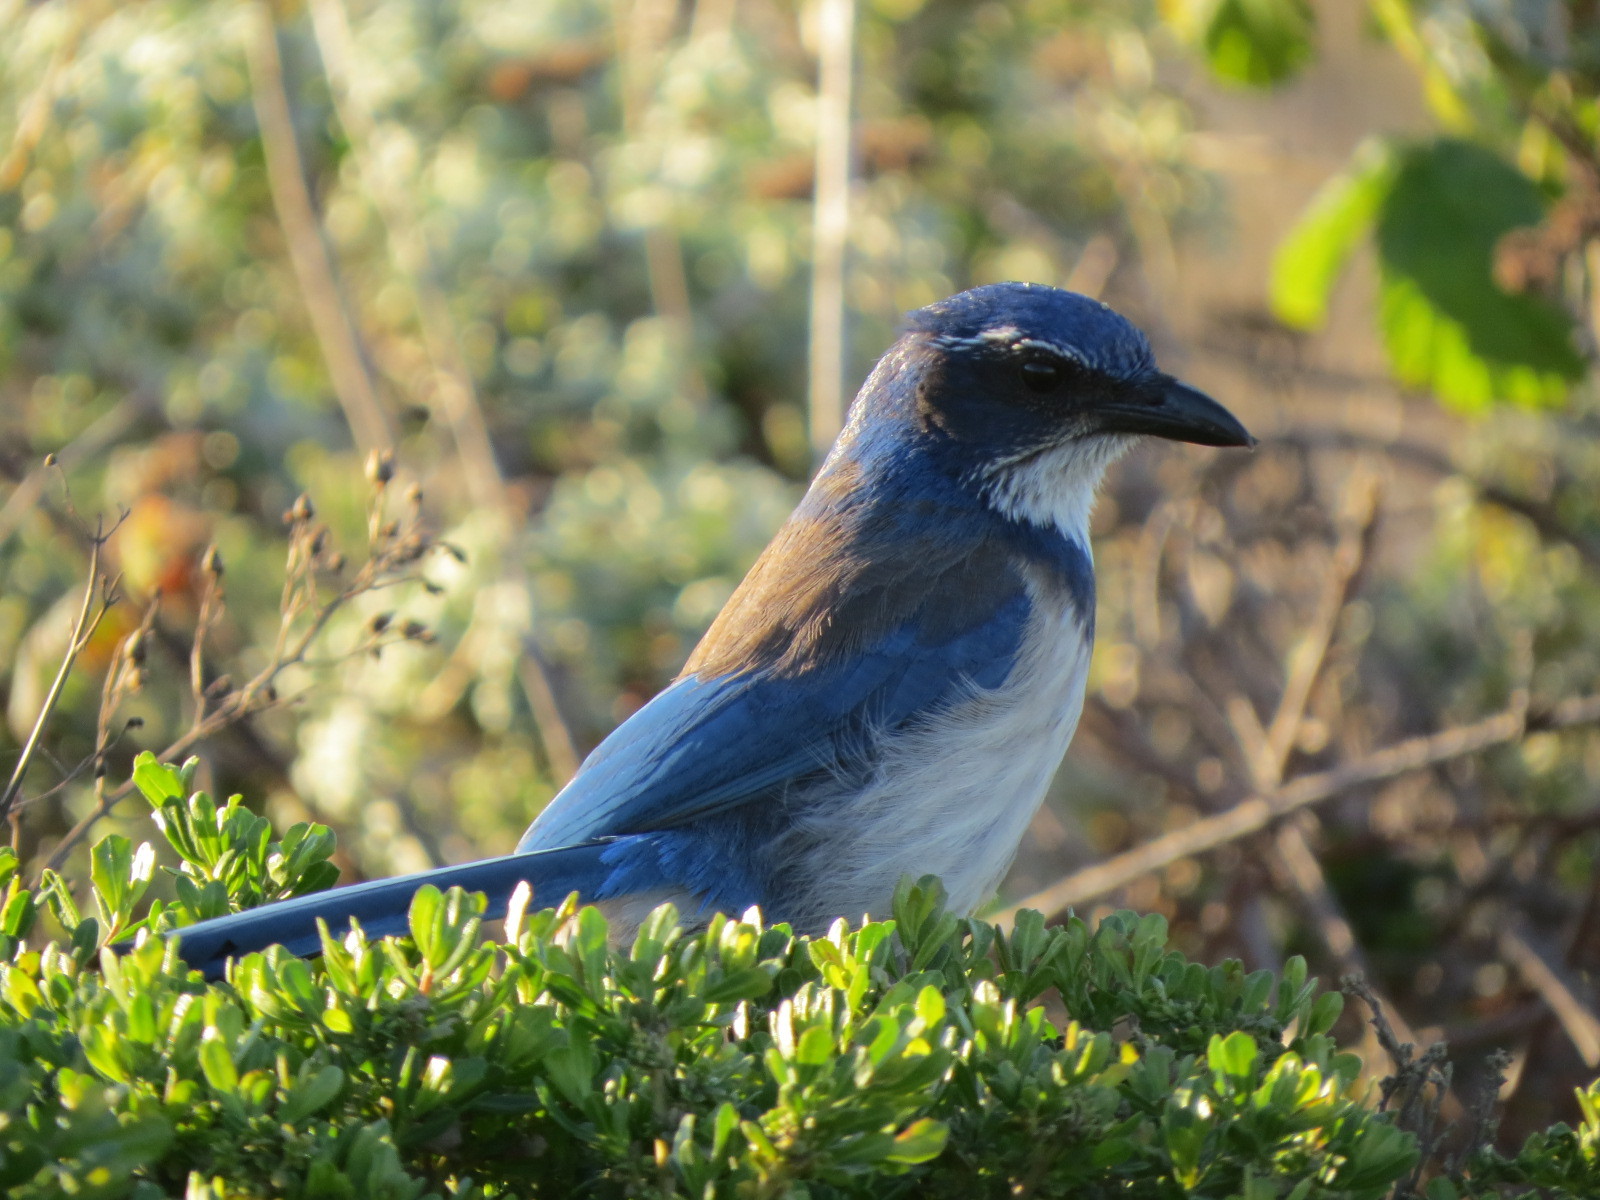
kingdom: Animalia
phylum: Chordata
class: Aves
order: Passeriformes
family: Corvidae
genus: Aphelocoma
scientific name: Aphelocoma californica
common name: California scrub-jay
